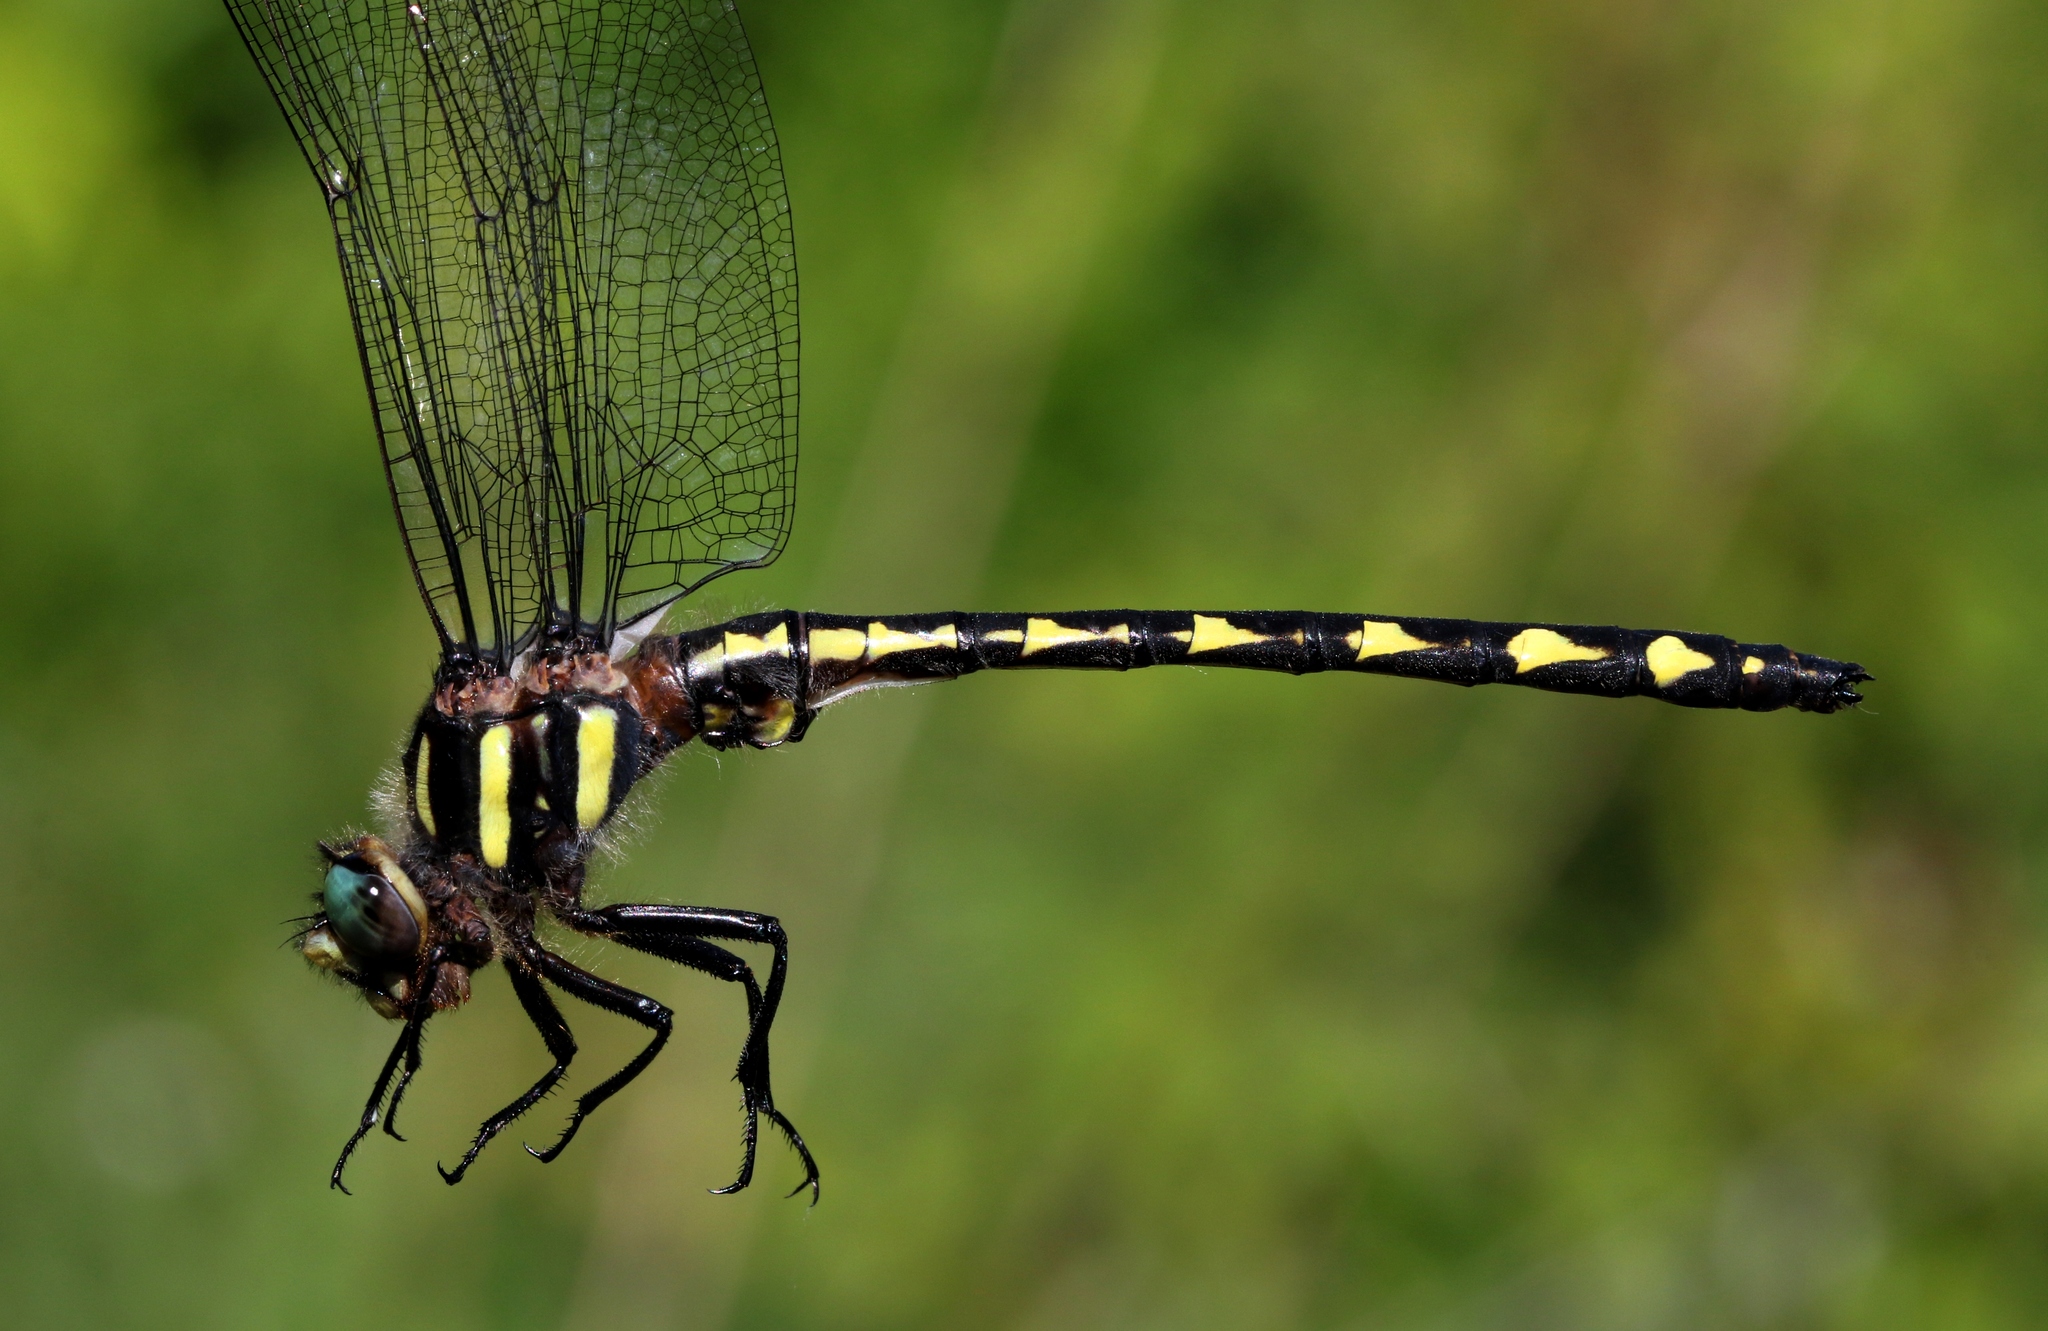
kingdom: Animalia
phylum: Arthropoda
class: Insecta
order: Odonata
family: Cordulegastridae
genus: Cordulegaster
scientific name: Cordulegaster diastatops
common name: Delta-spotted spiketail
